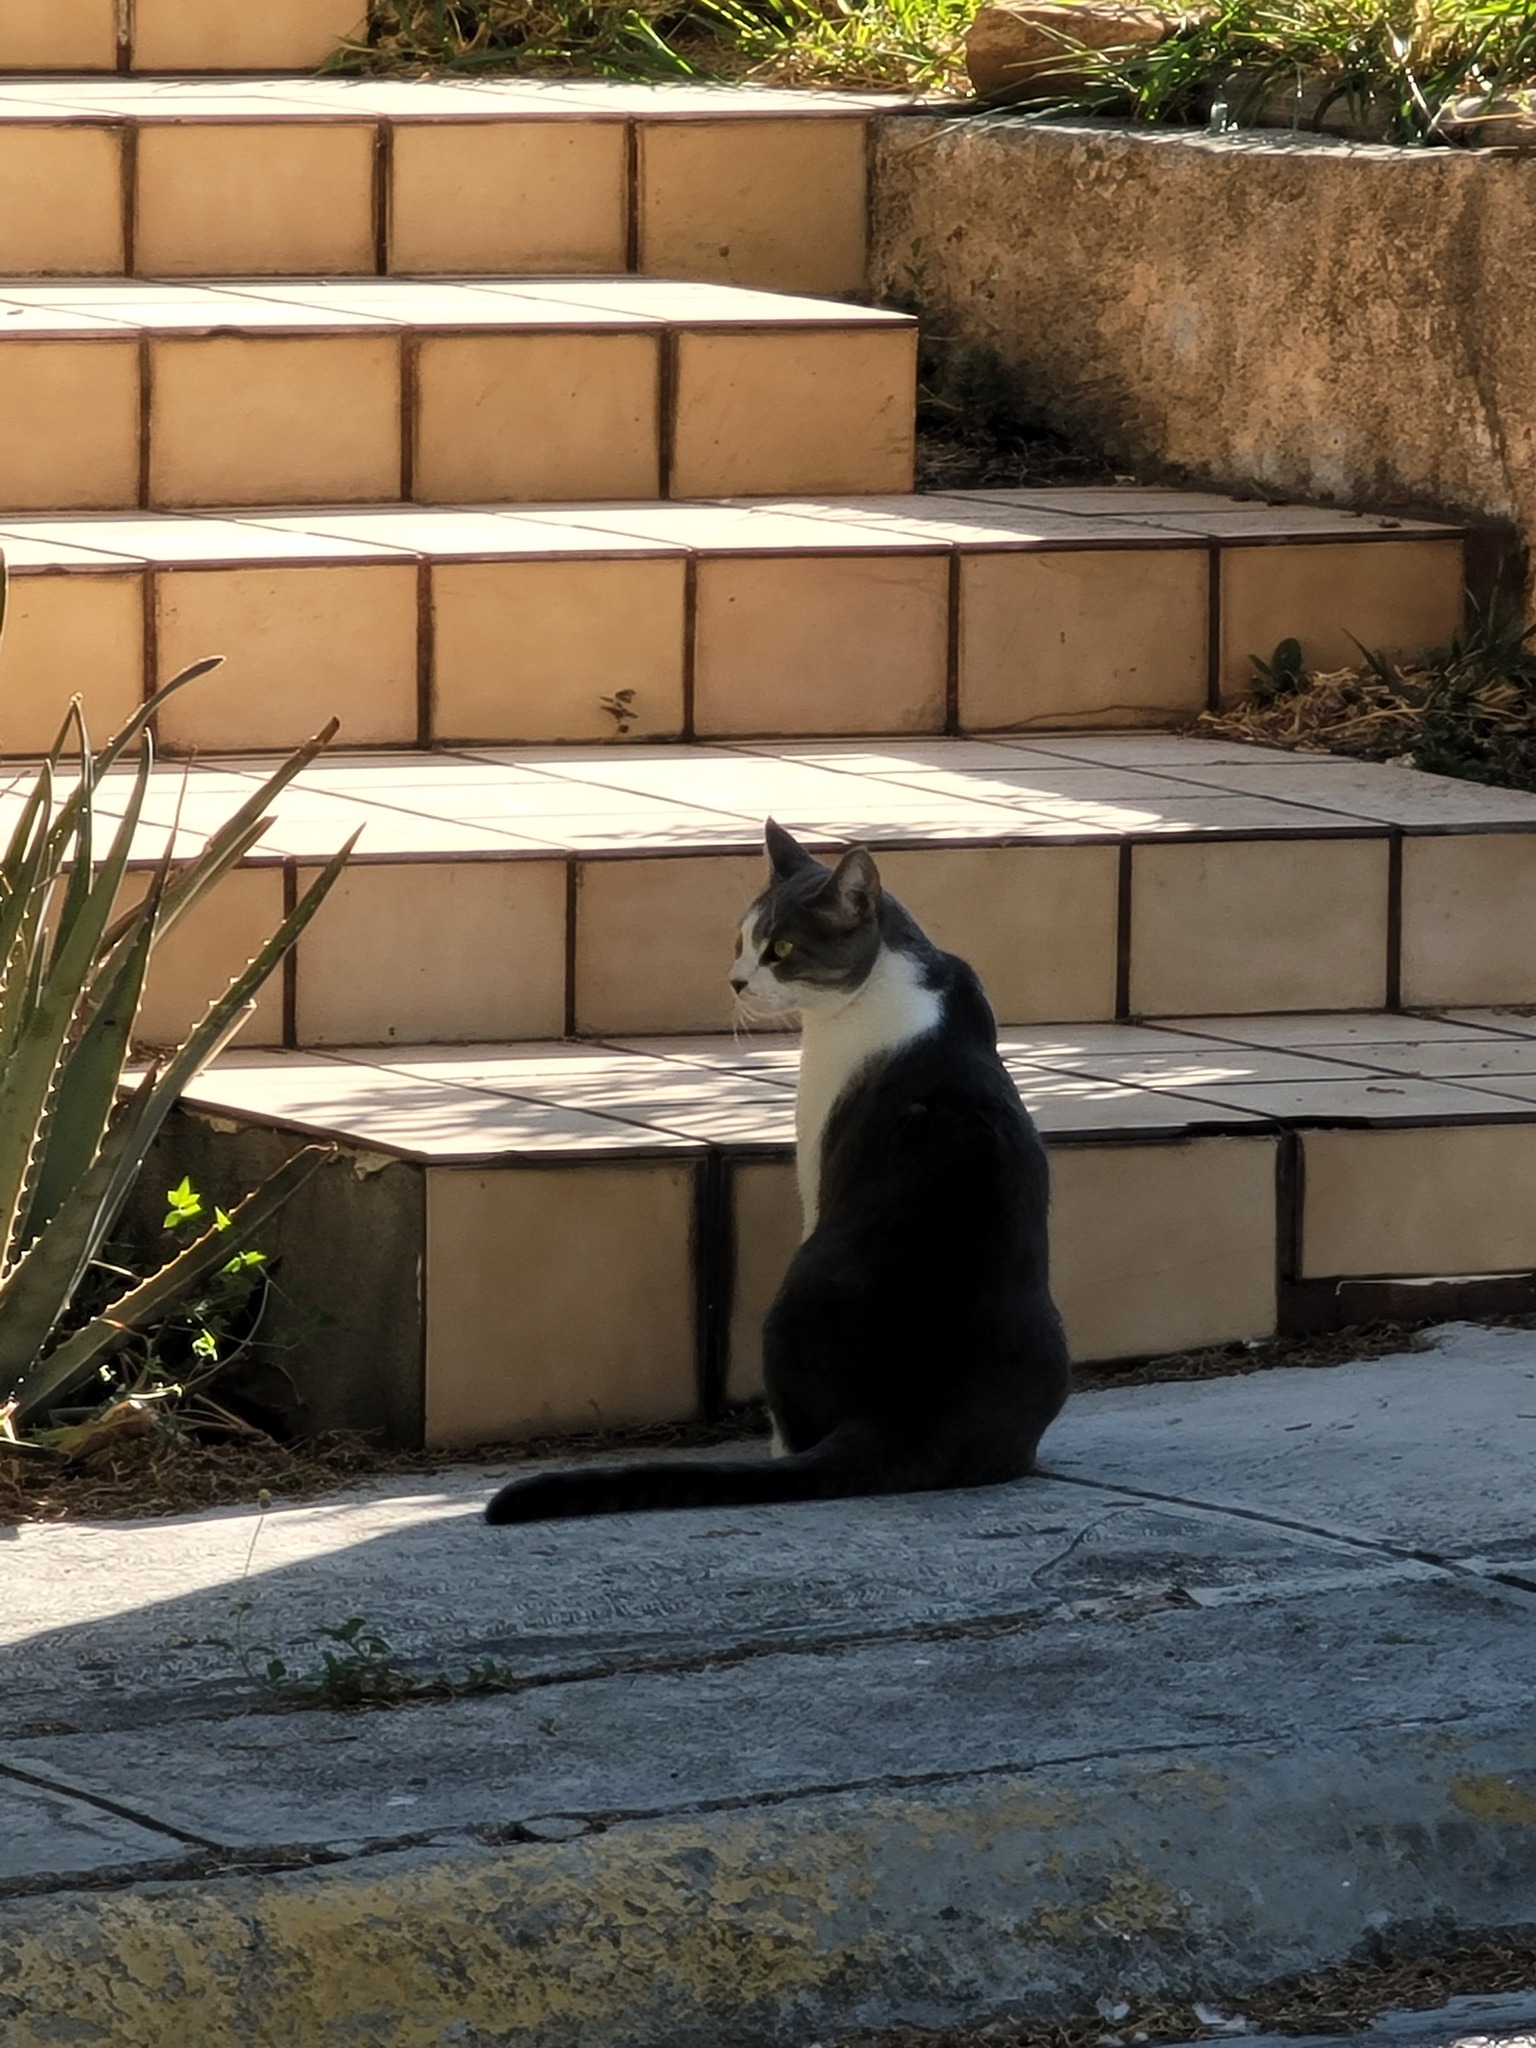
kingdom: Animalia
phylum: Chordata
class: Mammalia
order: Carnivora
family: Felidae
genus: Felis
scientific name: Felis catus
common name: Domestic cat
